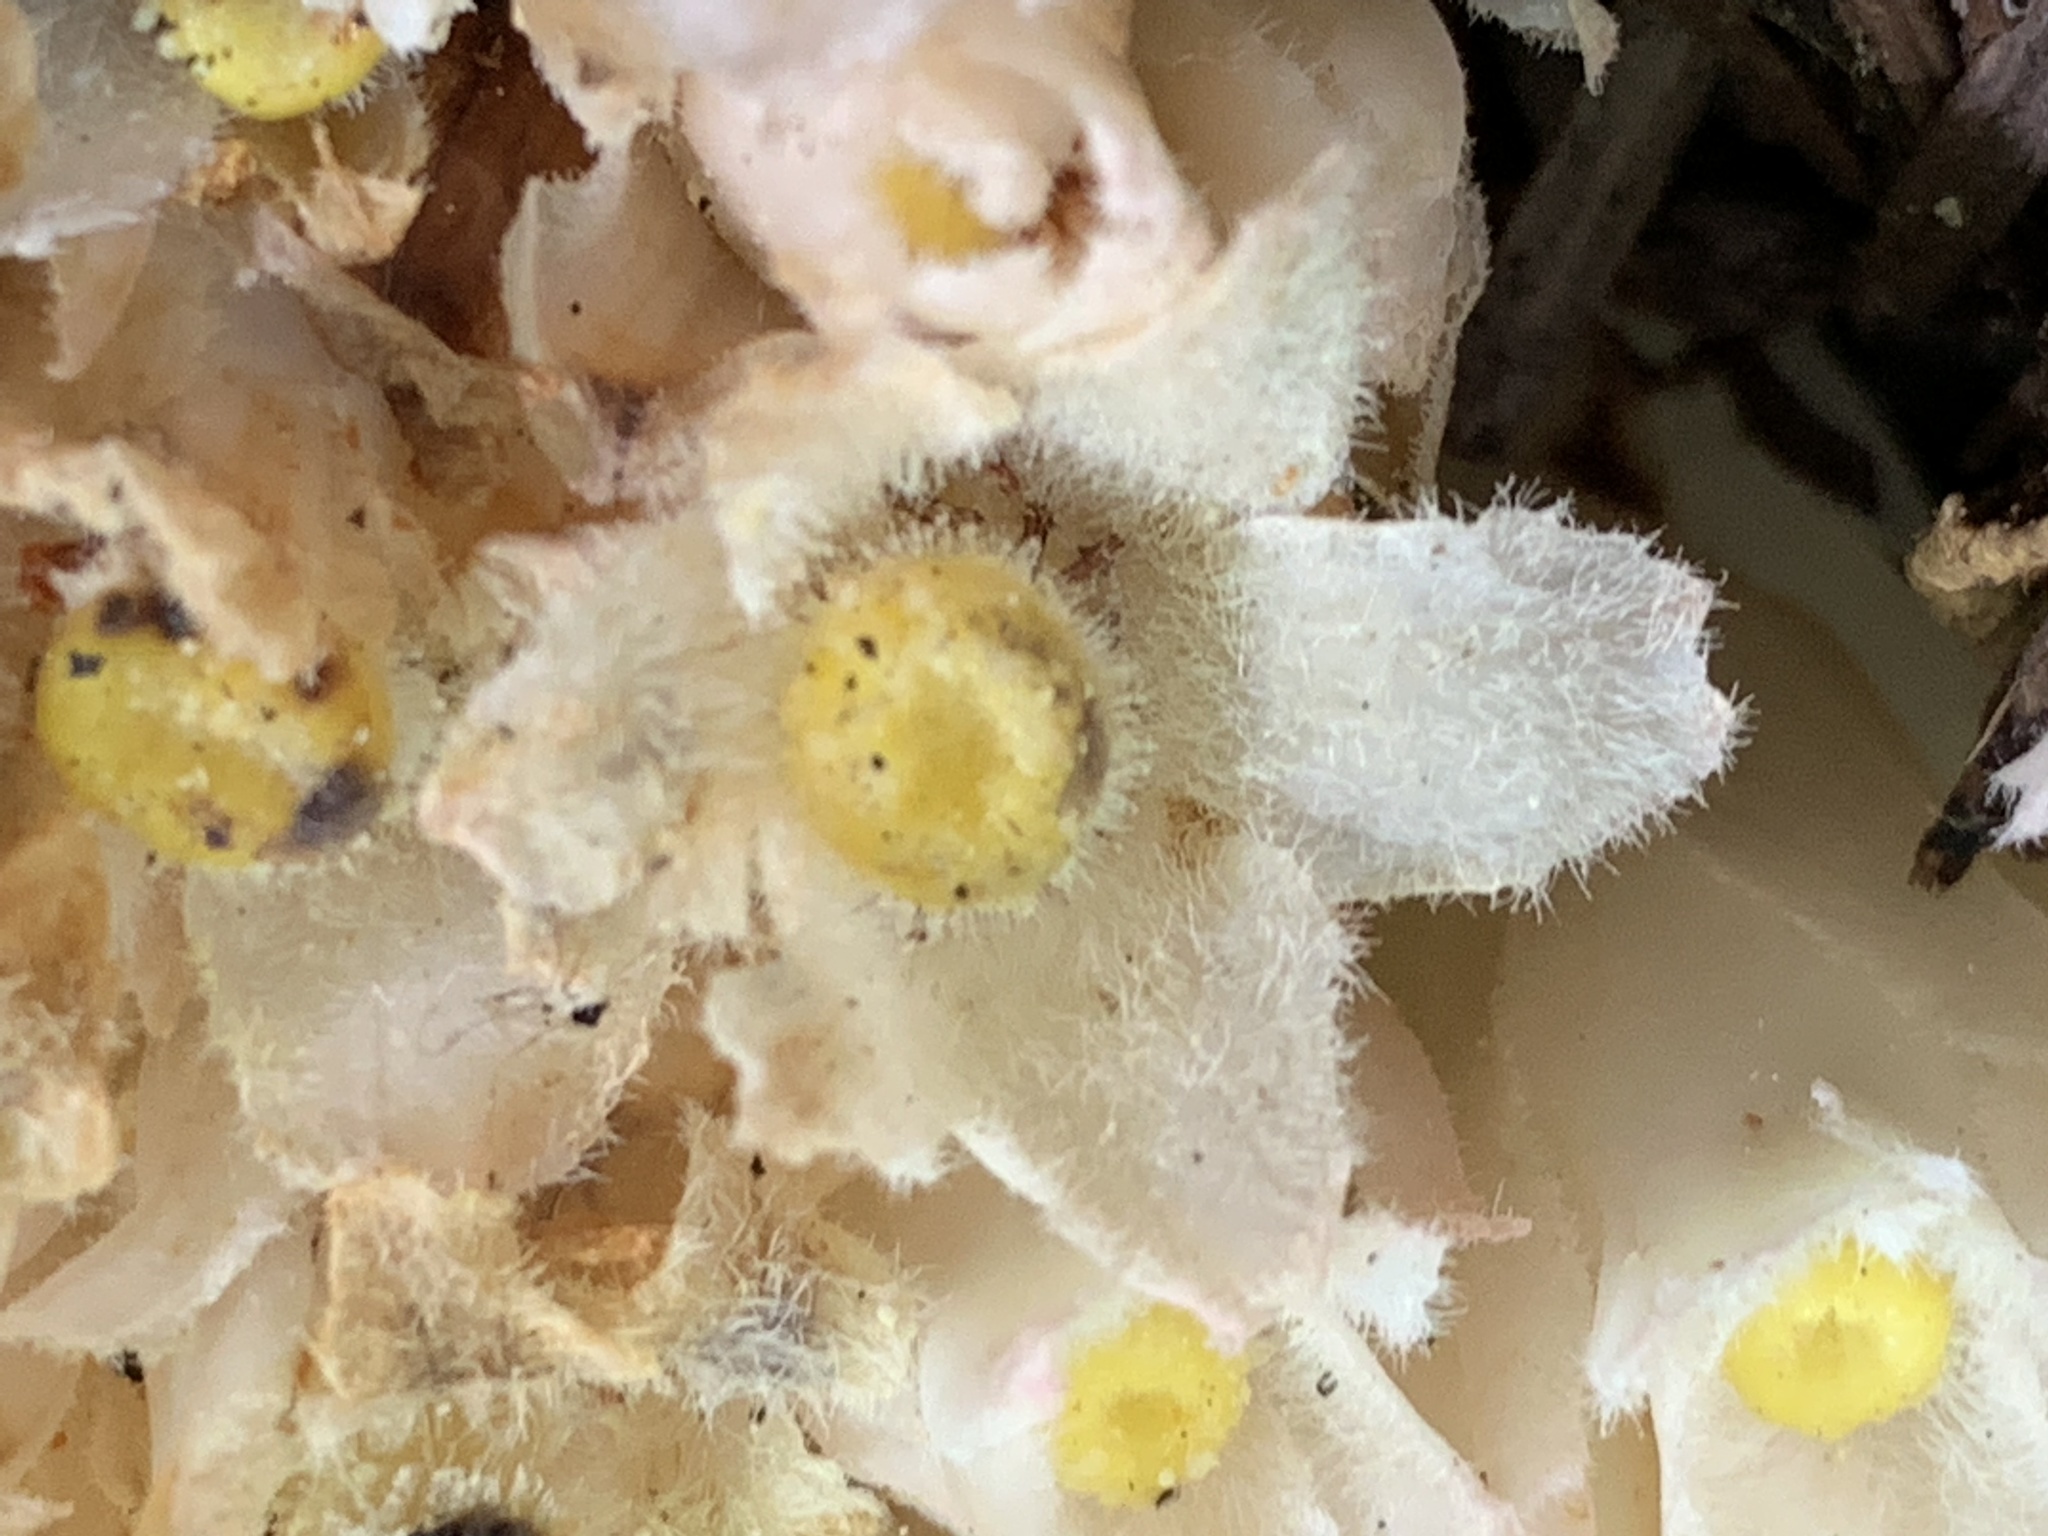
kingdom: Plantae
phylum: Tracheophyta
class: Magnoliopsida
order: Ericales
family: Ericaceae
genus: Hemitomes
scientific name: Hemitomes congestum
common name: Cone plant
